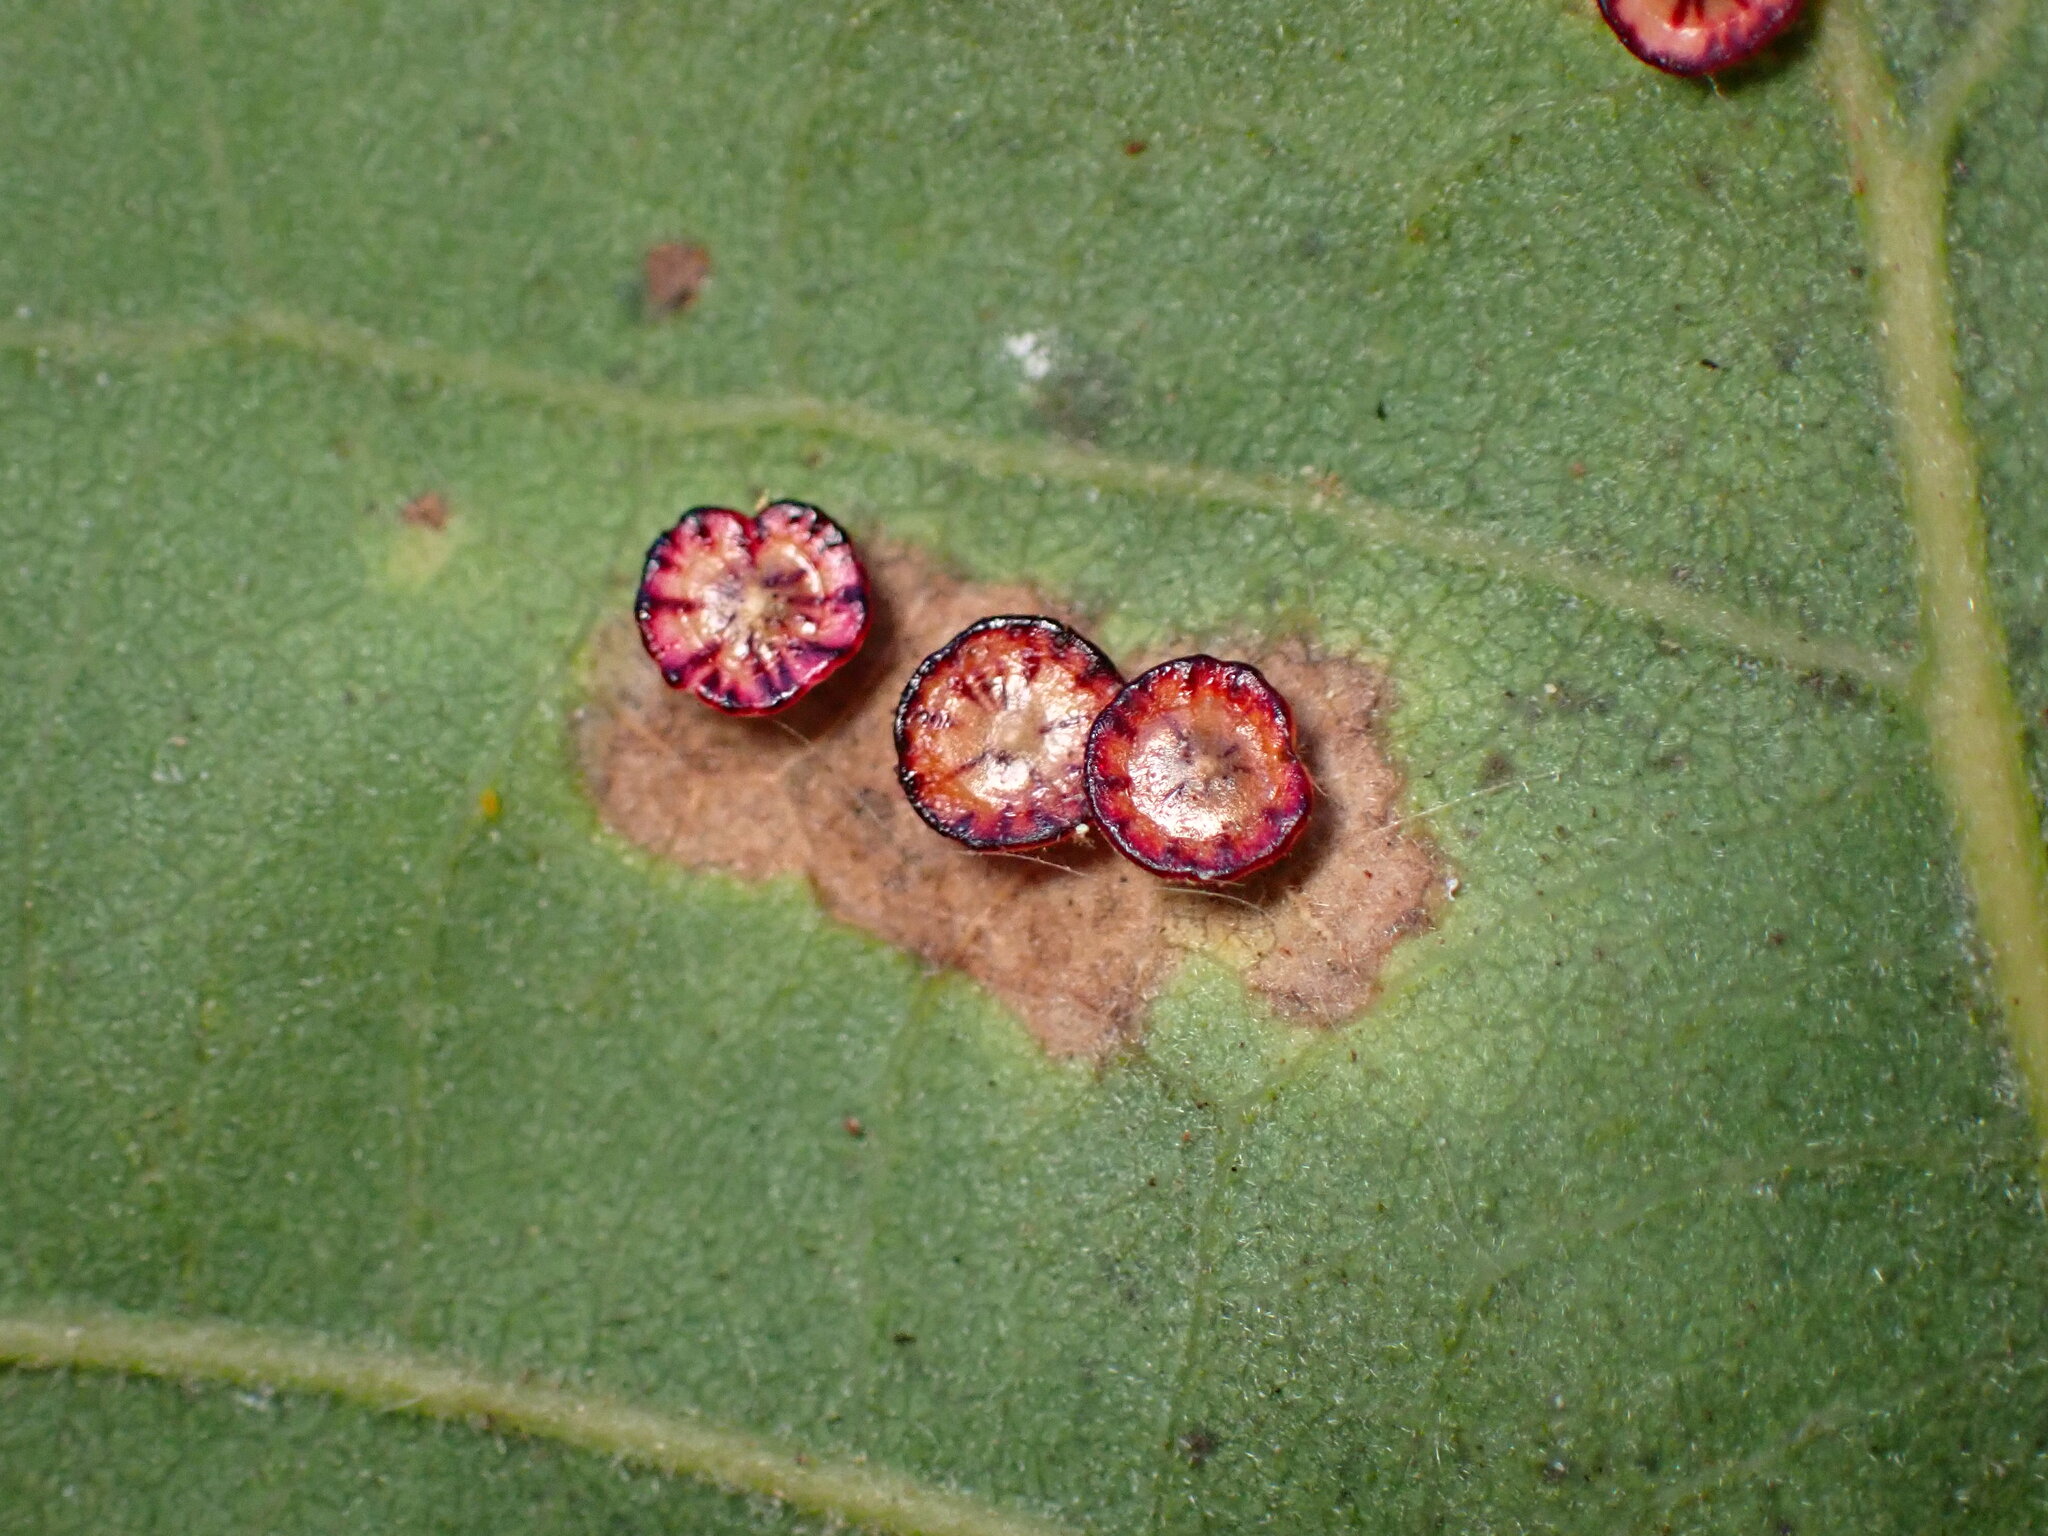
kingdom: Animalia
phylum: Arthropoda
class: Insecta
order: Hymenoptera
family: Cynipidae
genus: Andricus
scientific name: Andricus
